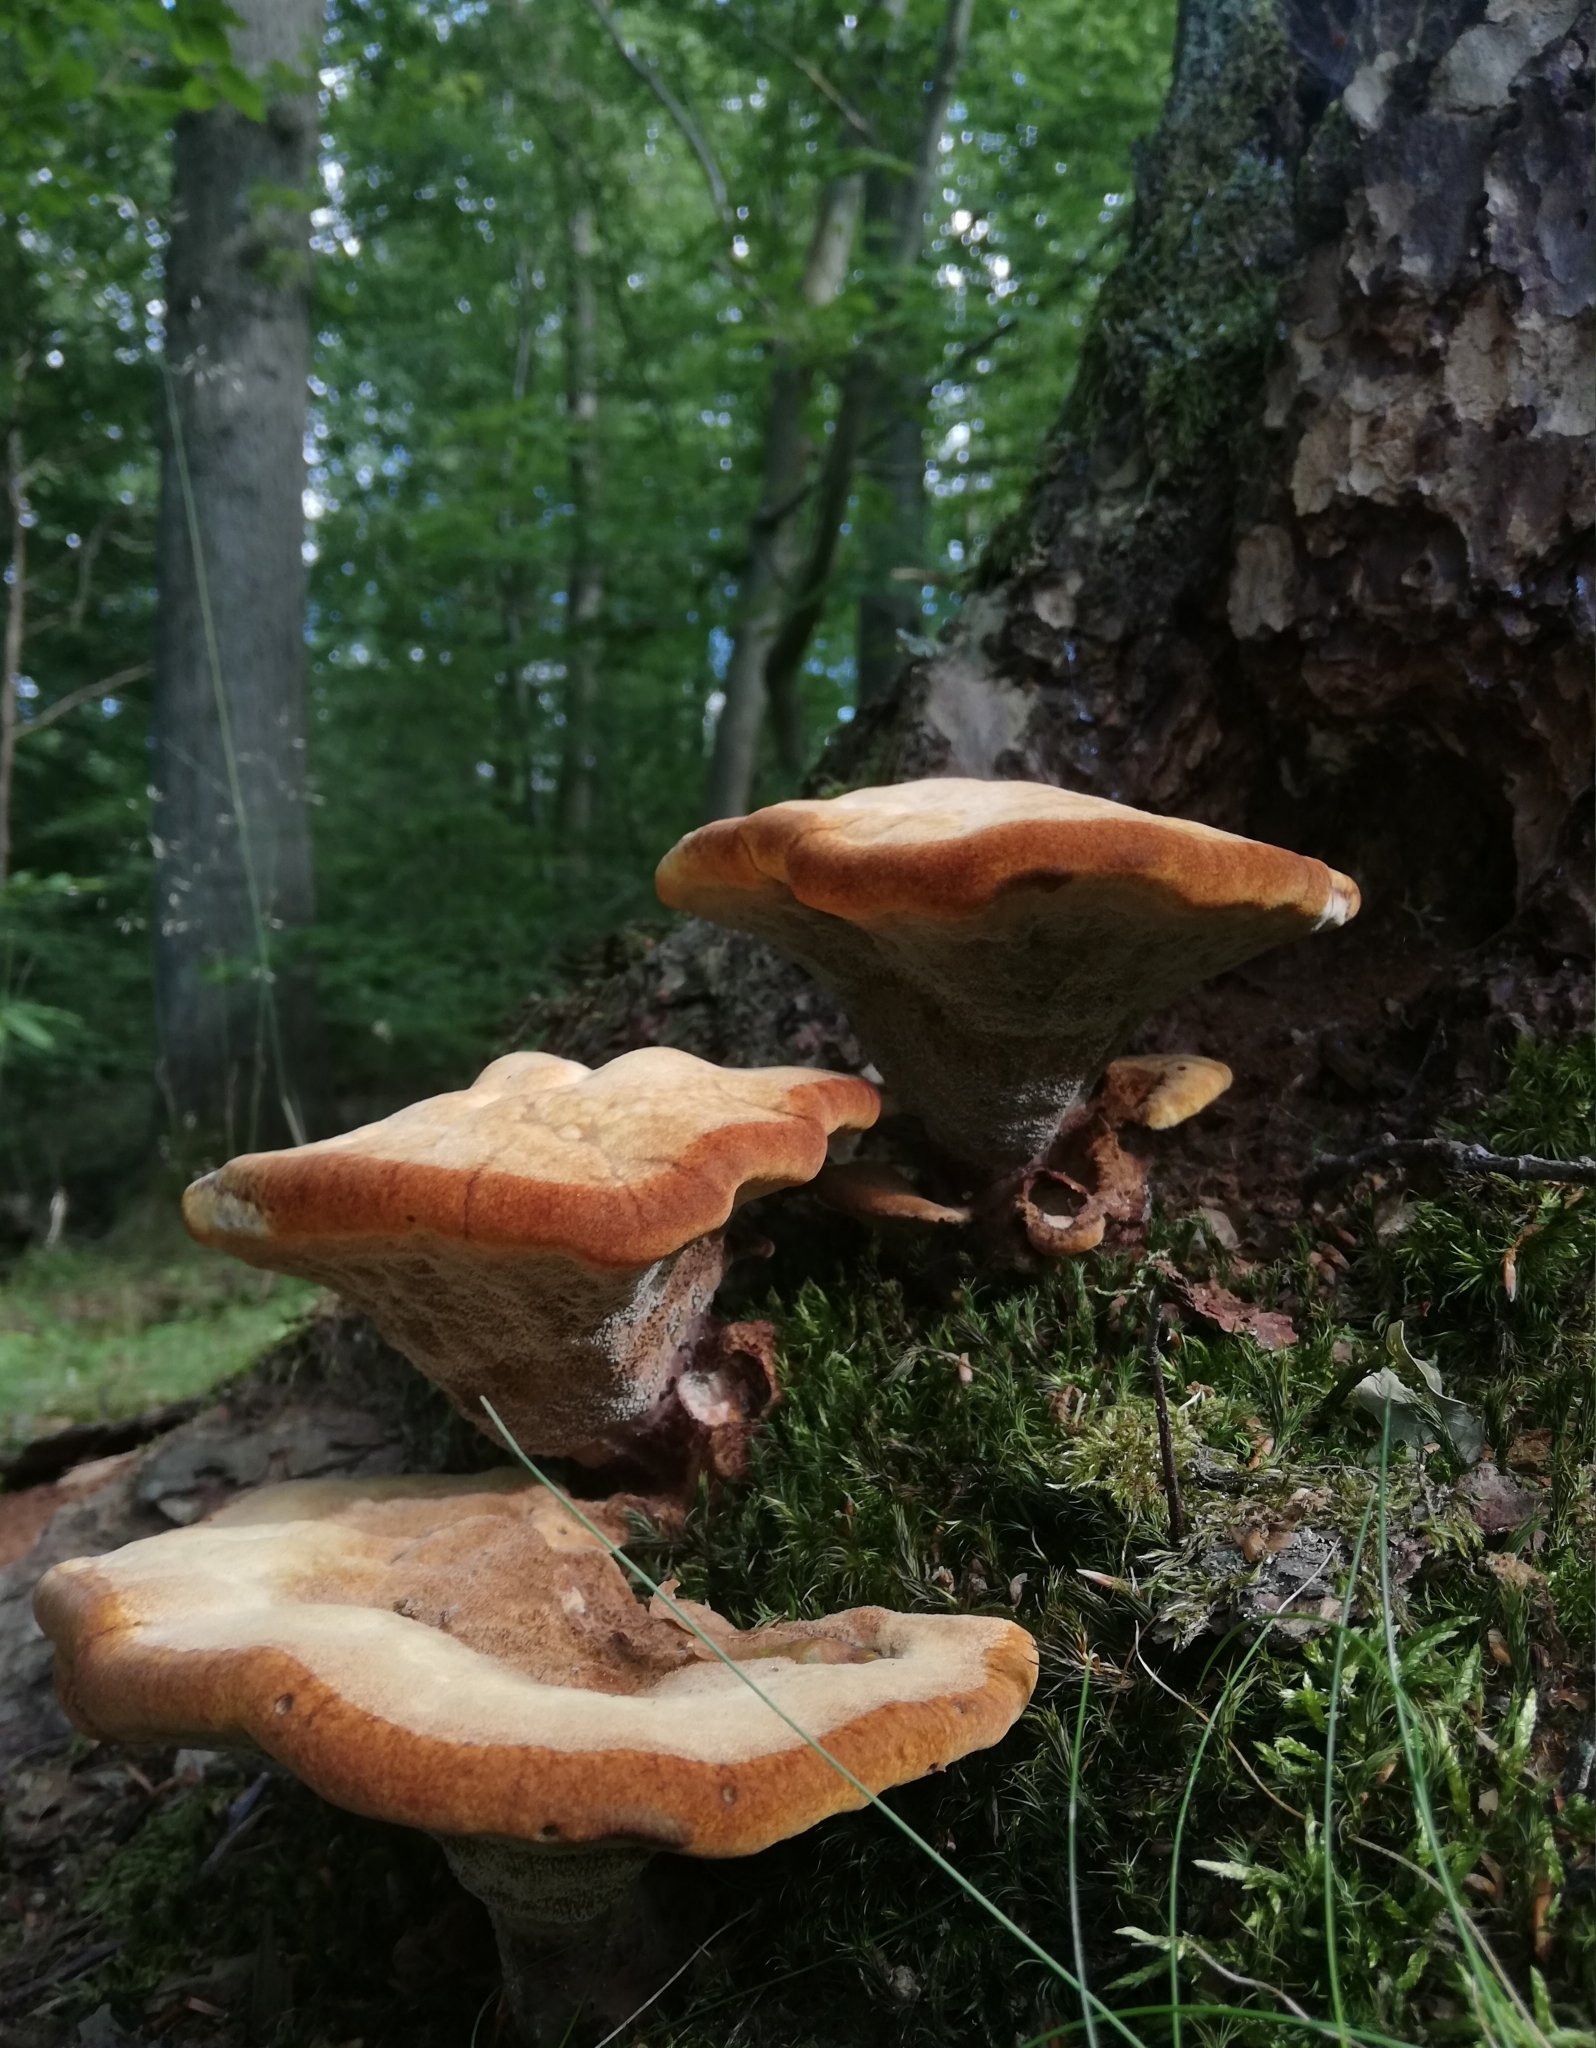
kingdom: Fungi
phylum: Basidiomycota
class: Agaricomycetes
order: Polyporales
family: Laetiporaceae
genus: Phaeolus
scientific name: Phaeolus schweinitzii
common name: Dyer's mazegill
